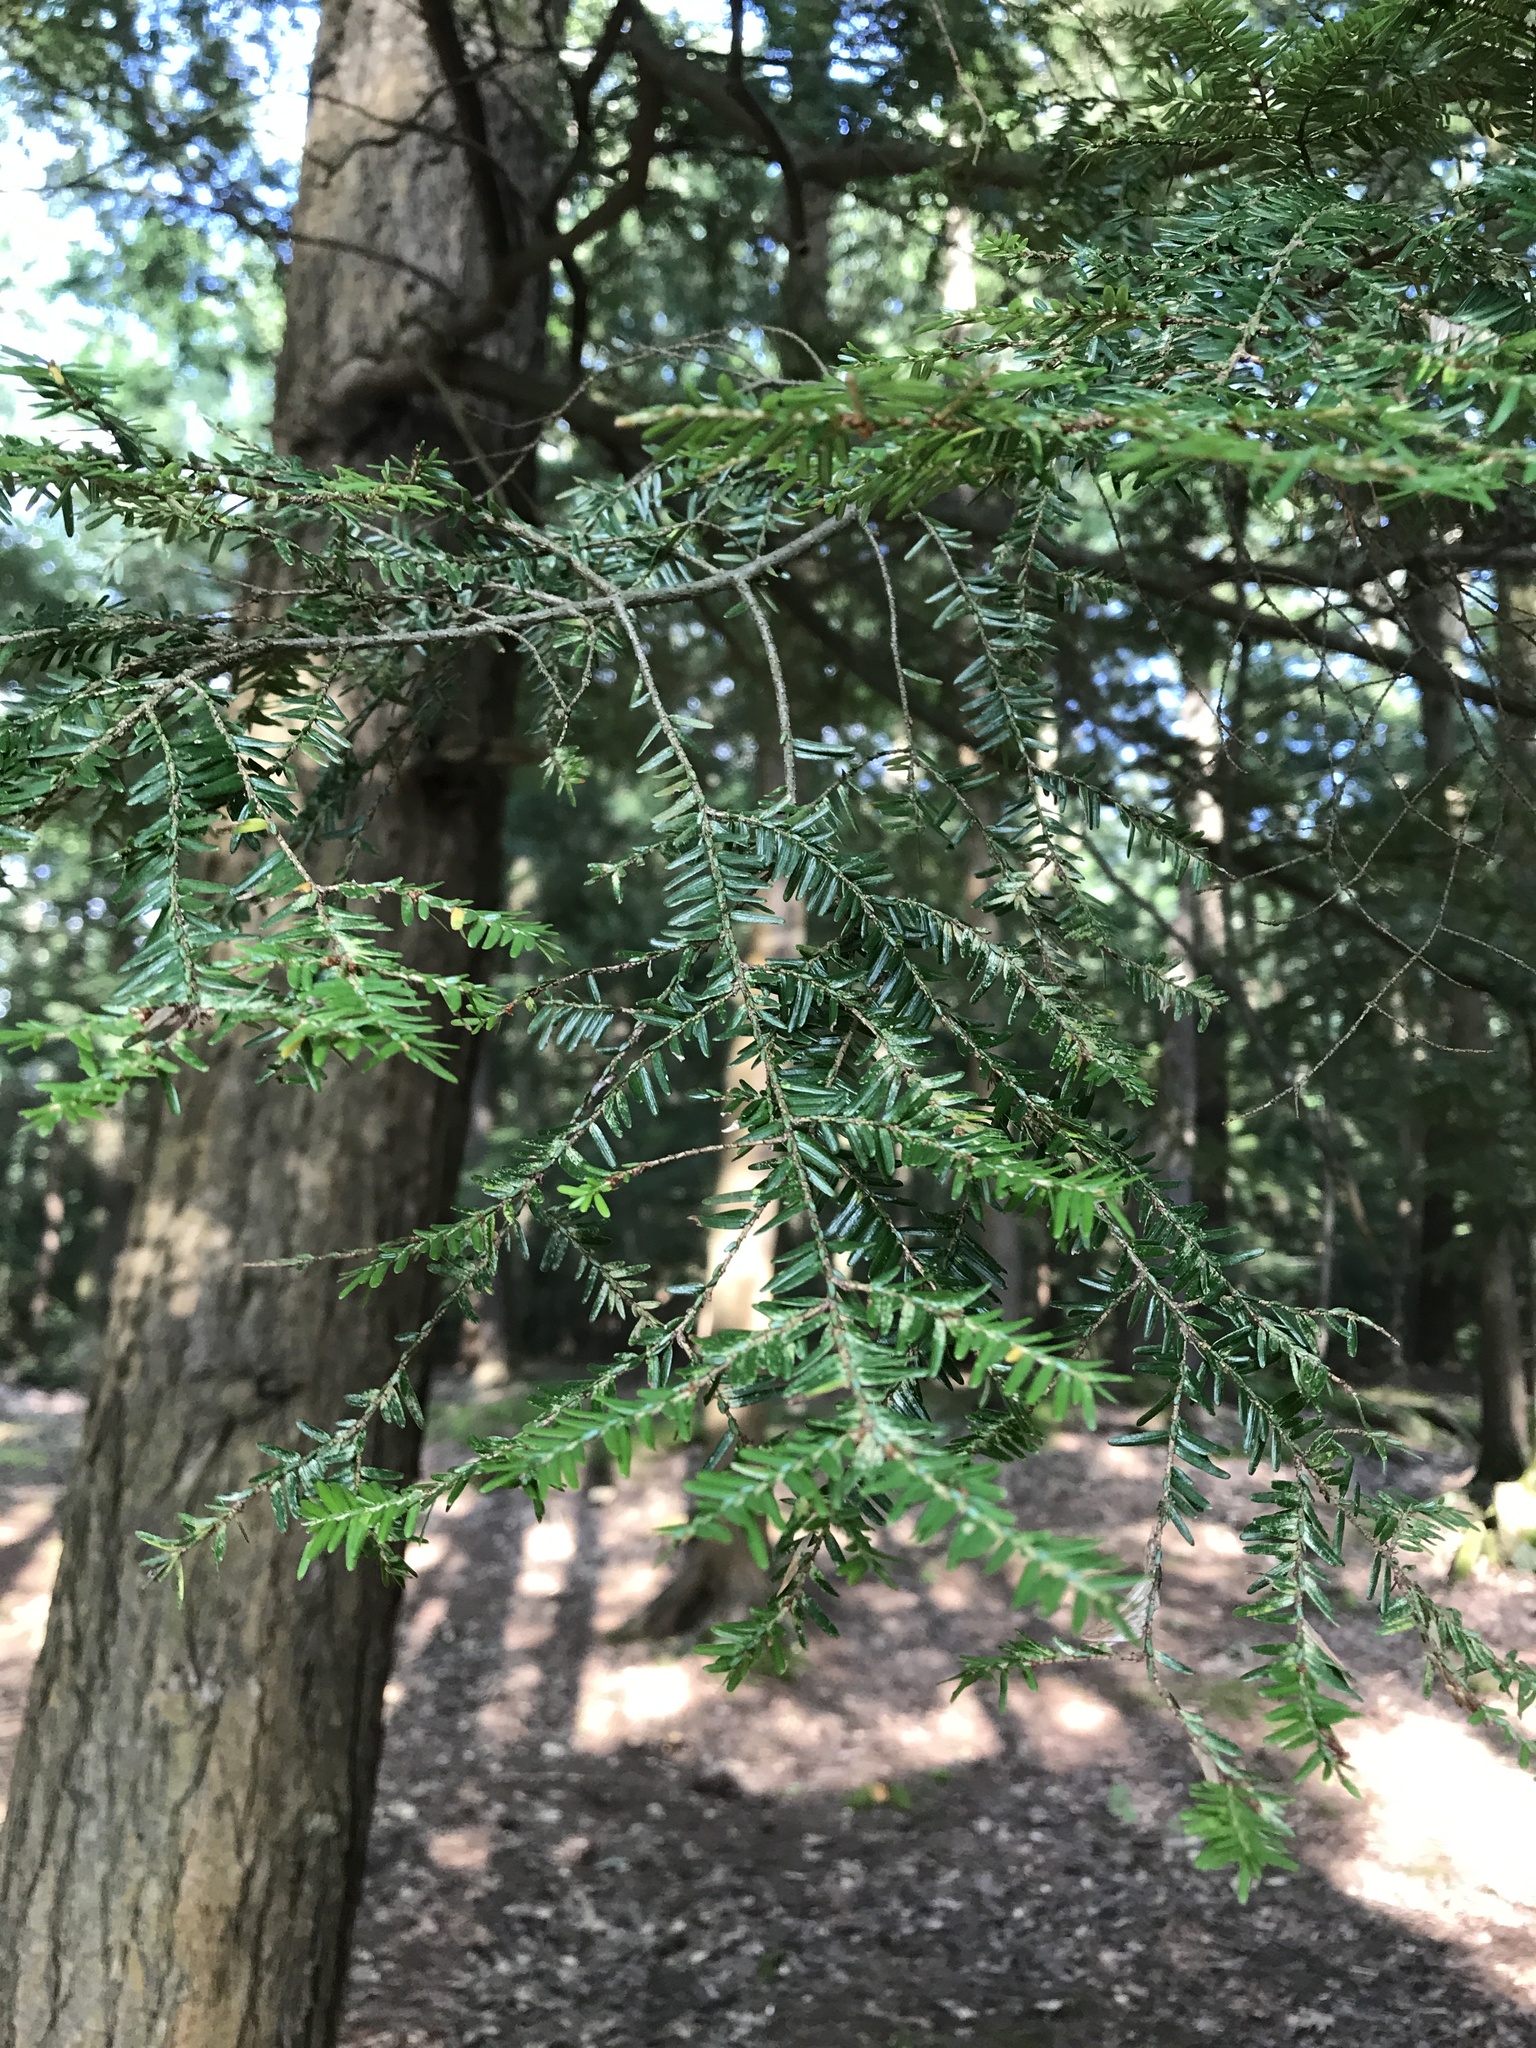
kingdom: Plantae
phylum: Tracheophyta
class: Pinopsida
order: Pinales
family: Pinaceae
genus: Tsuga
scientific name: Tsuga canadensis
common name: Eastern hemlock
